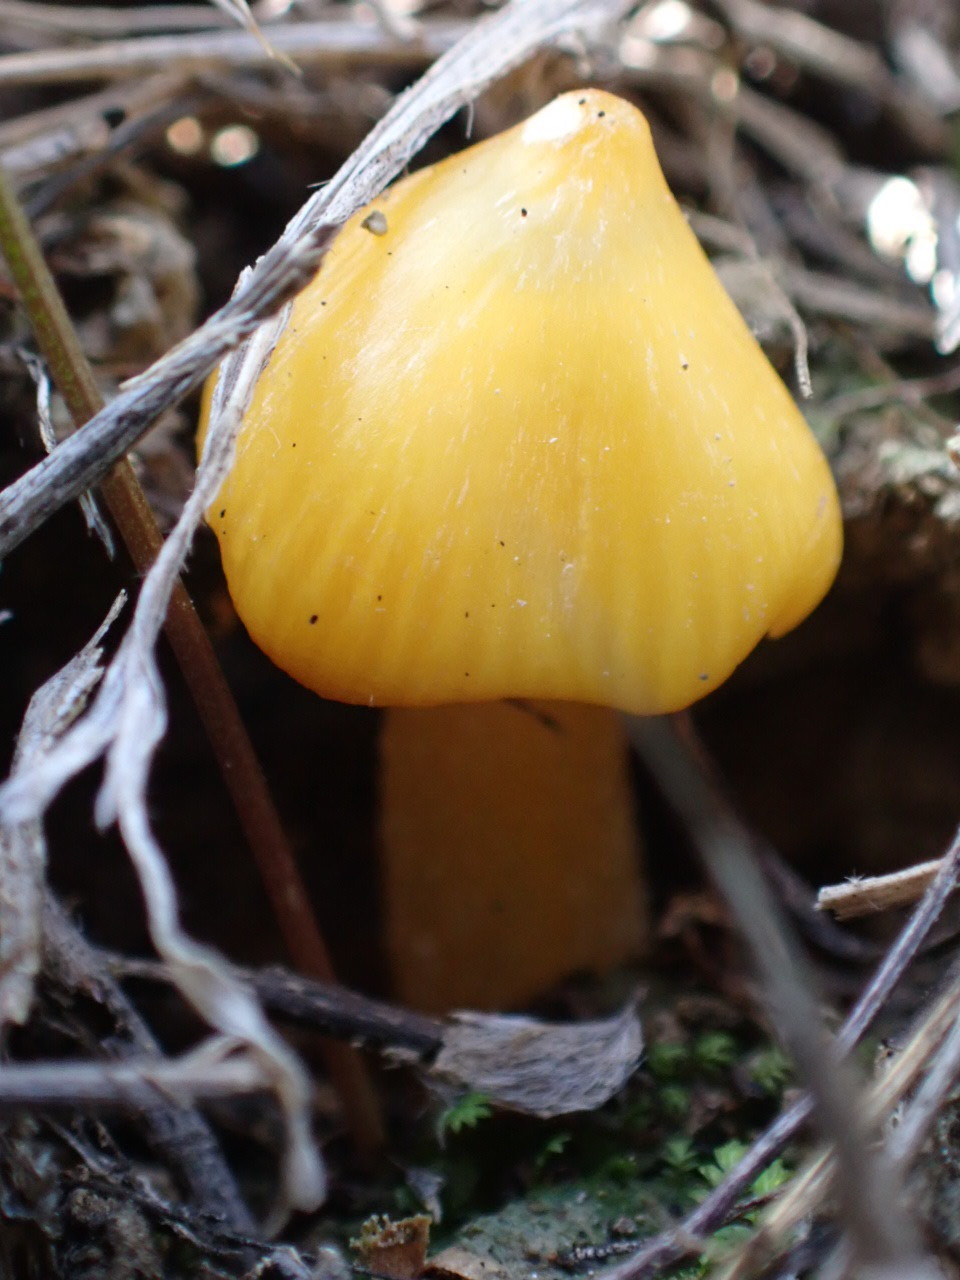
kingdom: Fungi
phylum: Basidiomycota
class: Agaricomycetes
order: Agaricales
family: Hygrophoraceae
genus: Hygrocybe
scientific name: Hygrocybe acutoconica
